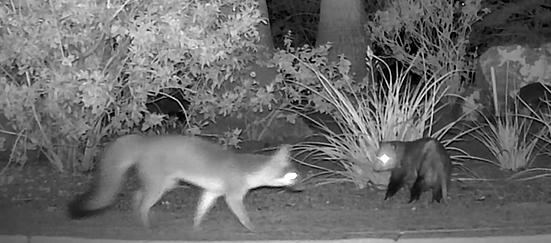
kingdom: Animalia
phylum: Chordata
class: Mammalia
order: Didelphimorphia
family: Didelphidae
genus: Didelphis
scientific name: Didelphis virginiana
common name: Virginia opossum
